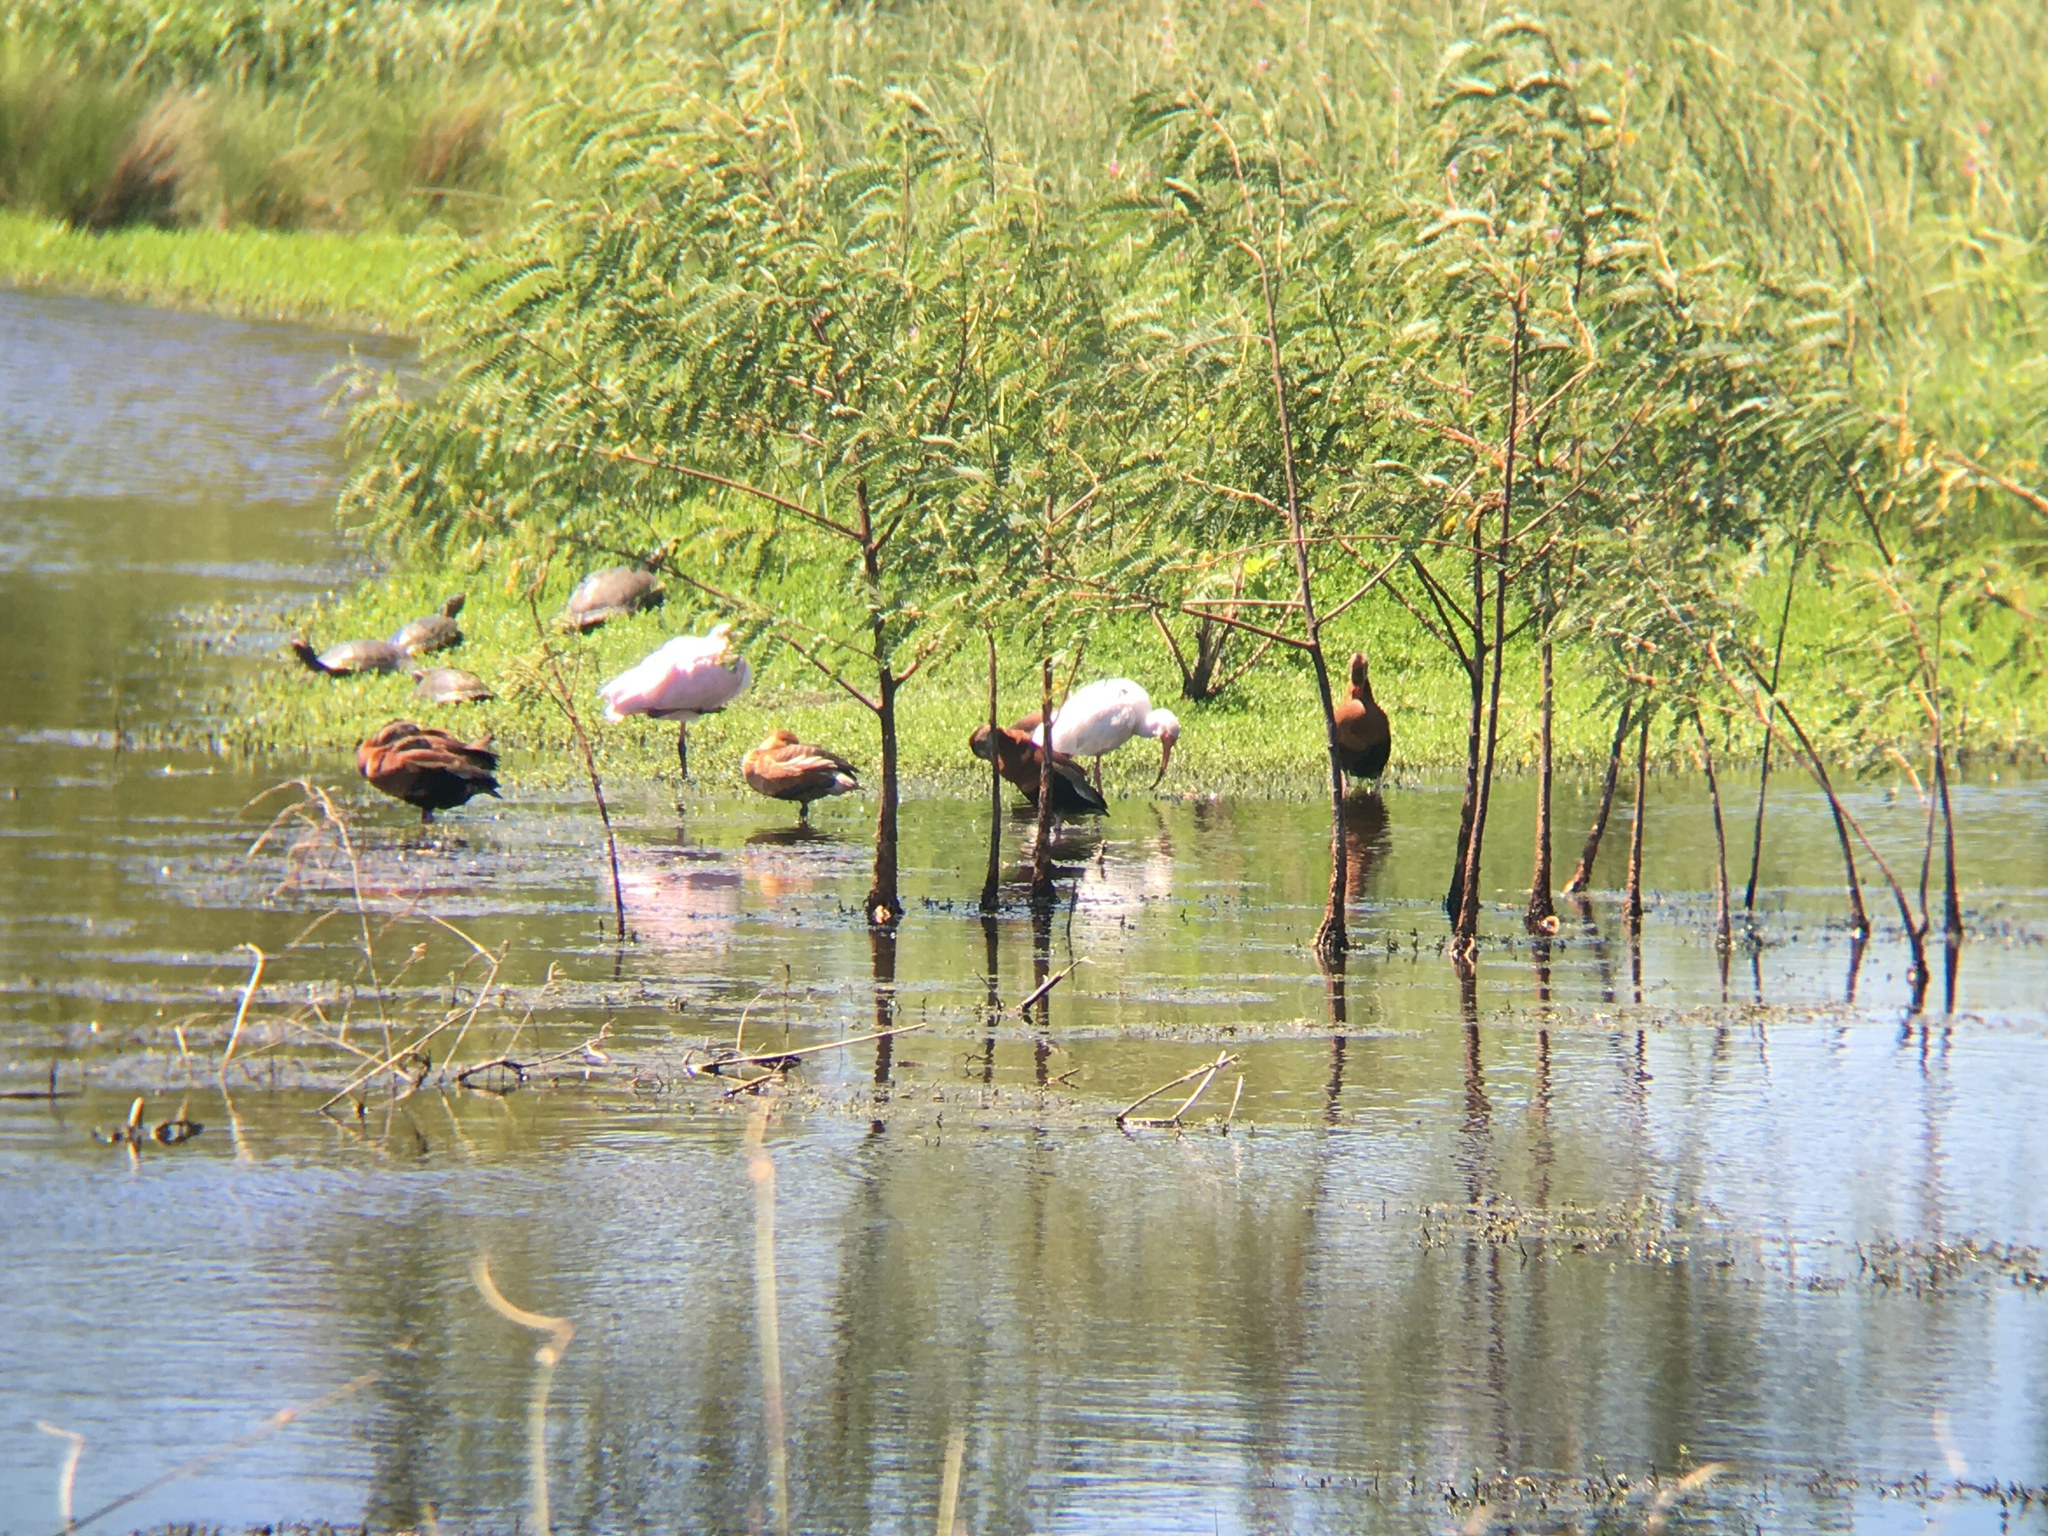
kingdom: Animalia
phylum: Chordata
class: Aves
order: Anseriformes
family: Anatidae
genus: Dendrocygna
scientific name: Dendrocygna autumnalis
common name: Black-bellied whistling duck
